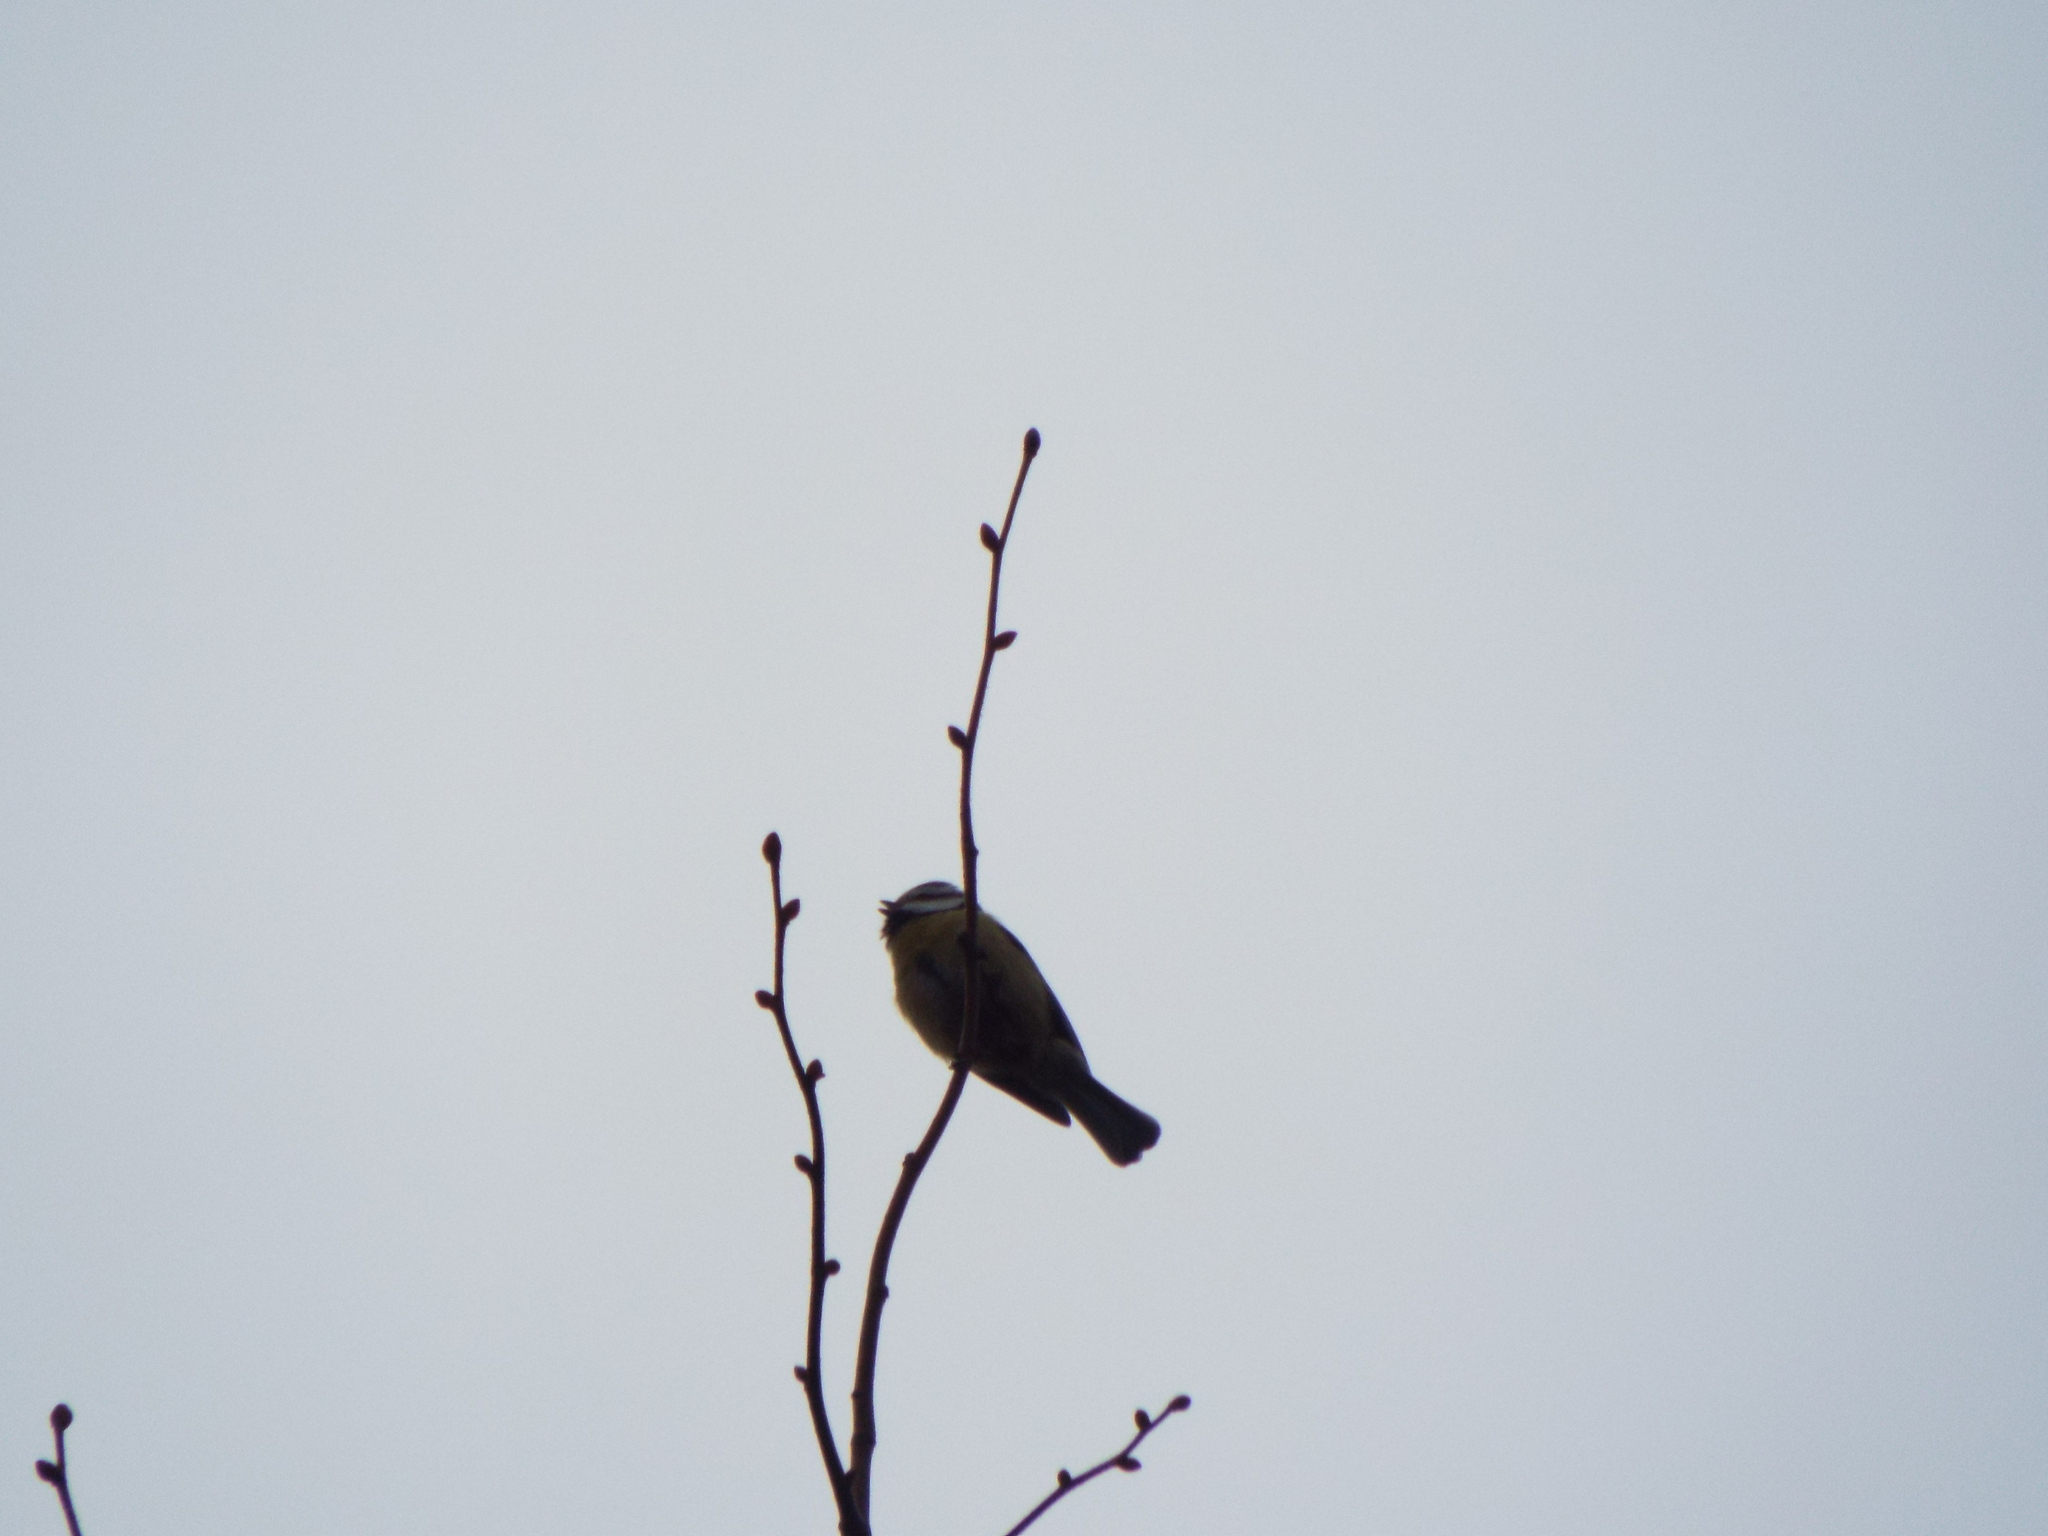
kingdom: Animalia
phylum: Chordata
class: Aves
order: Passeriformes
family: Paridae
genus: Cyanistes
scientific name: Cyanistes caeruleus
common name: Eurasian blue tit
